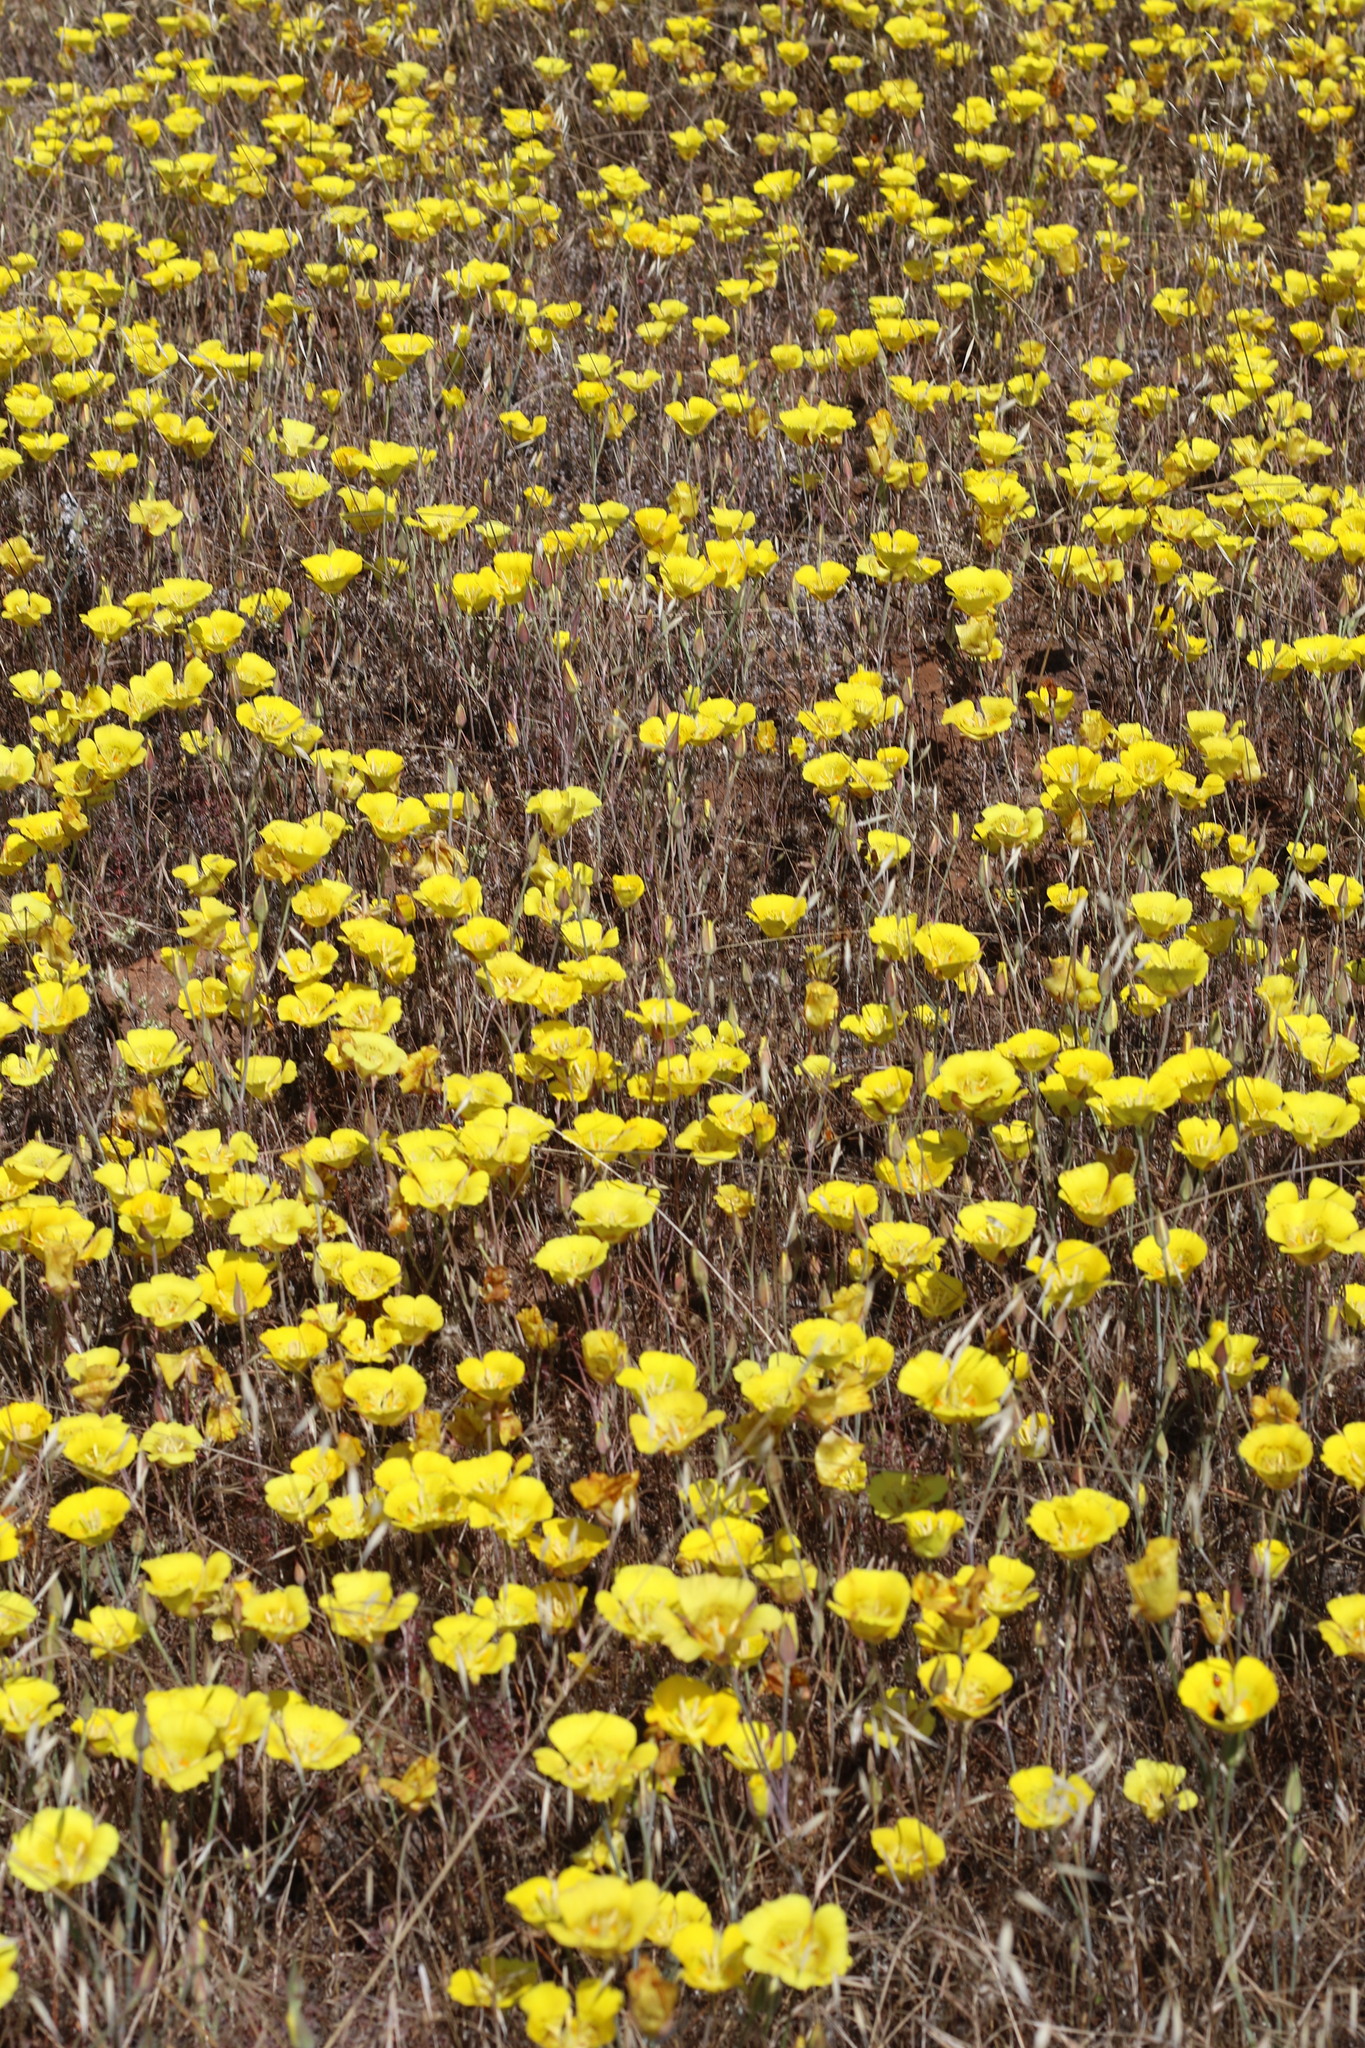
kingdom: Plantae
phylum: Tracheophyta
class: Liliopsida
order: Liliales
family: Liliaceae
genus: Calochortus
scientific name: Calochortus luteus
